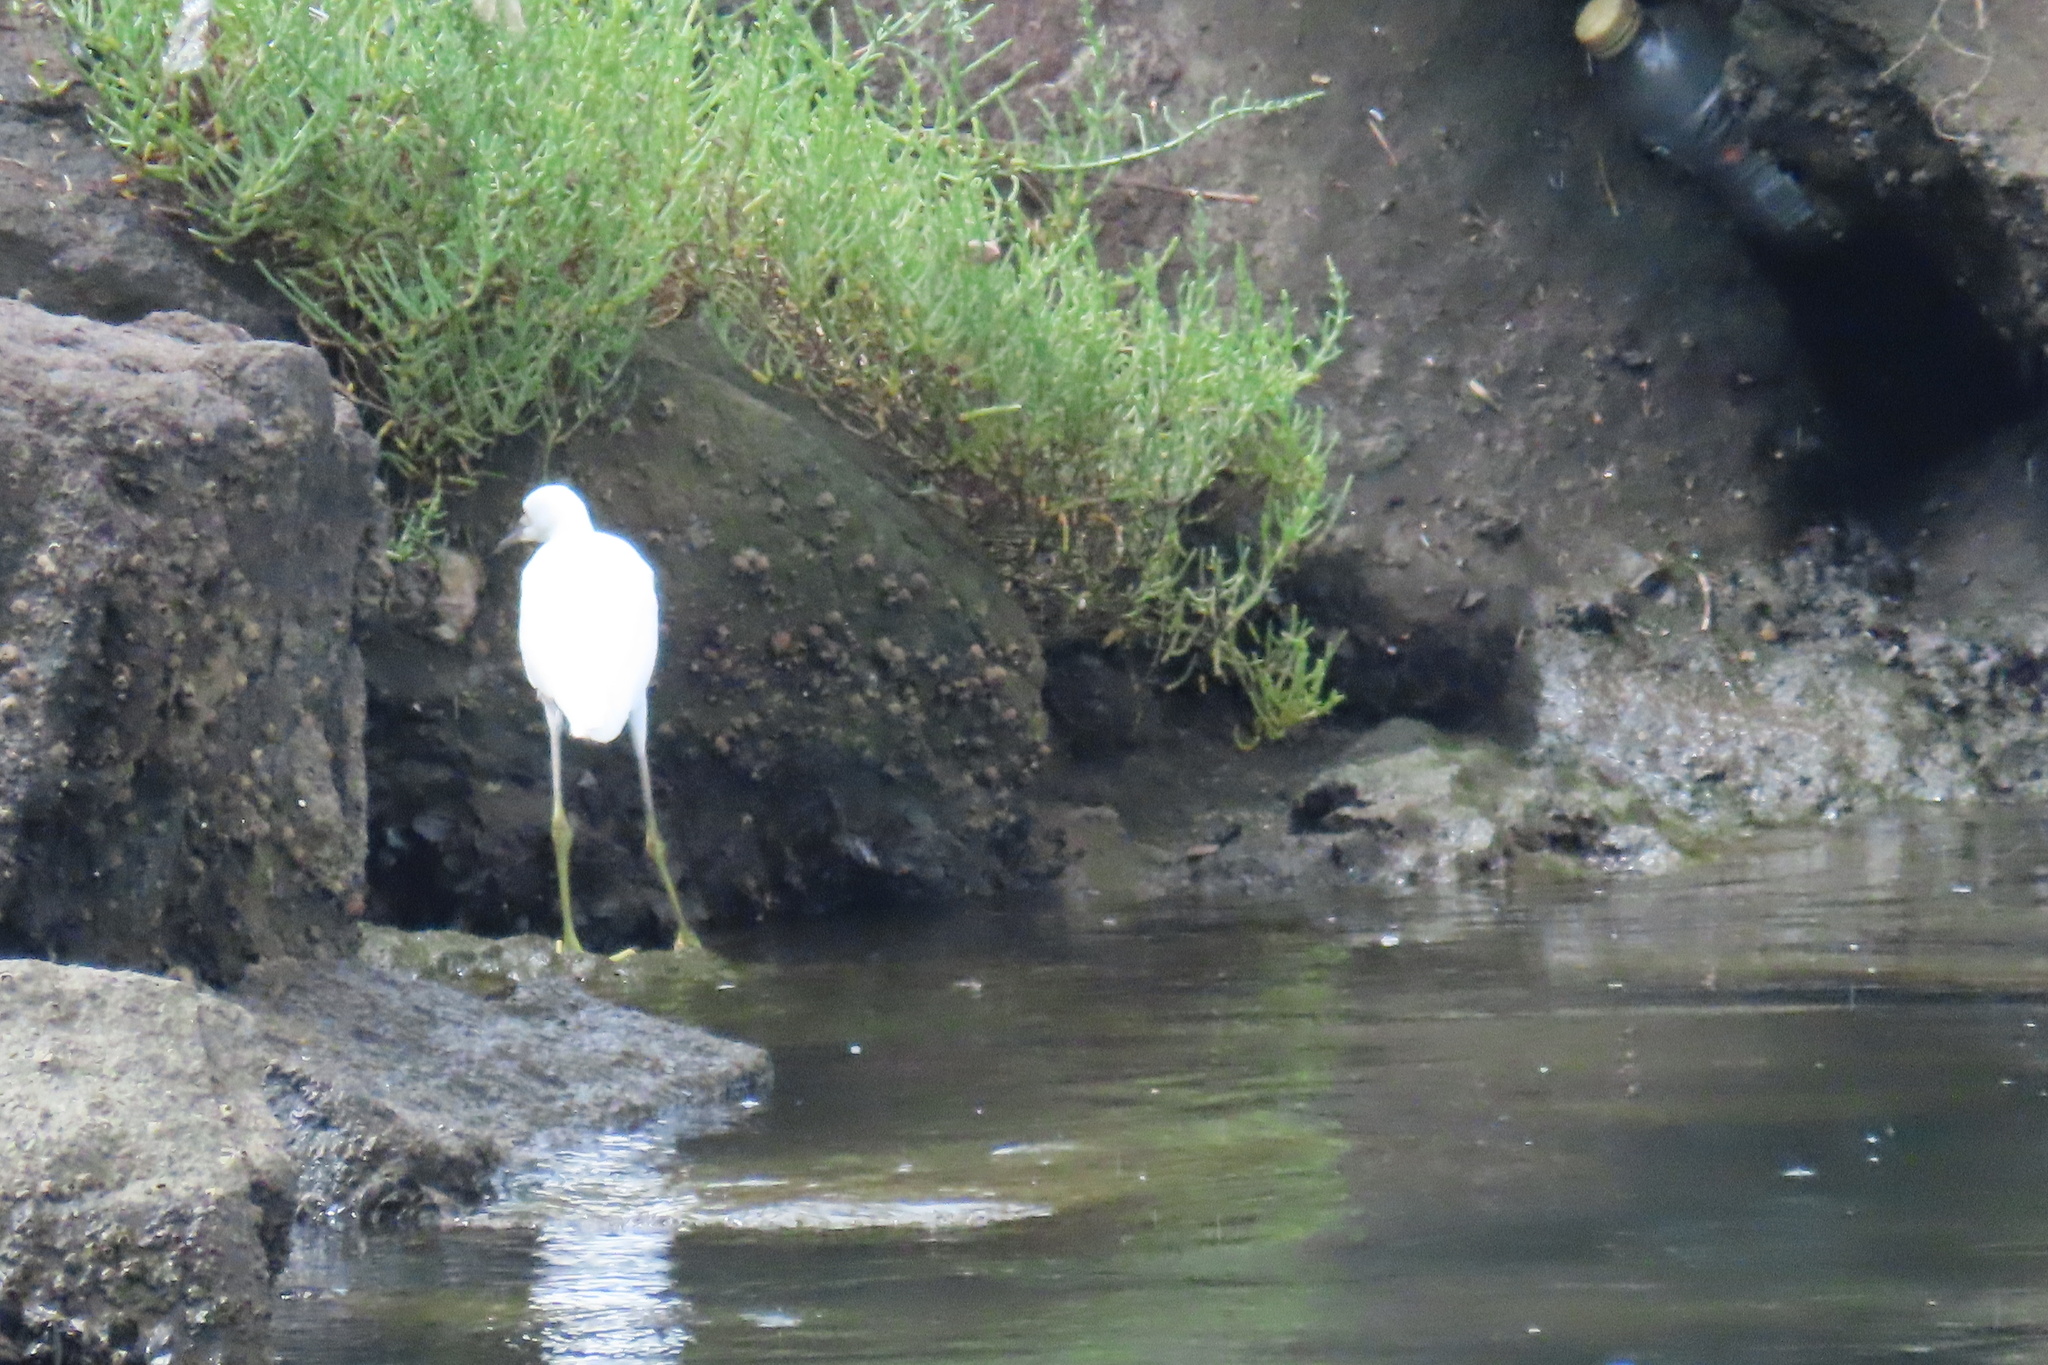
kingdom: Animalia
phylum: Chordata
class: Aves
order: Pelecaniformes
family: Ardeidae
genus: Egretta
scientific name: Egretta thula
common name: Snowy egret
